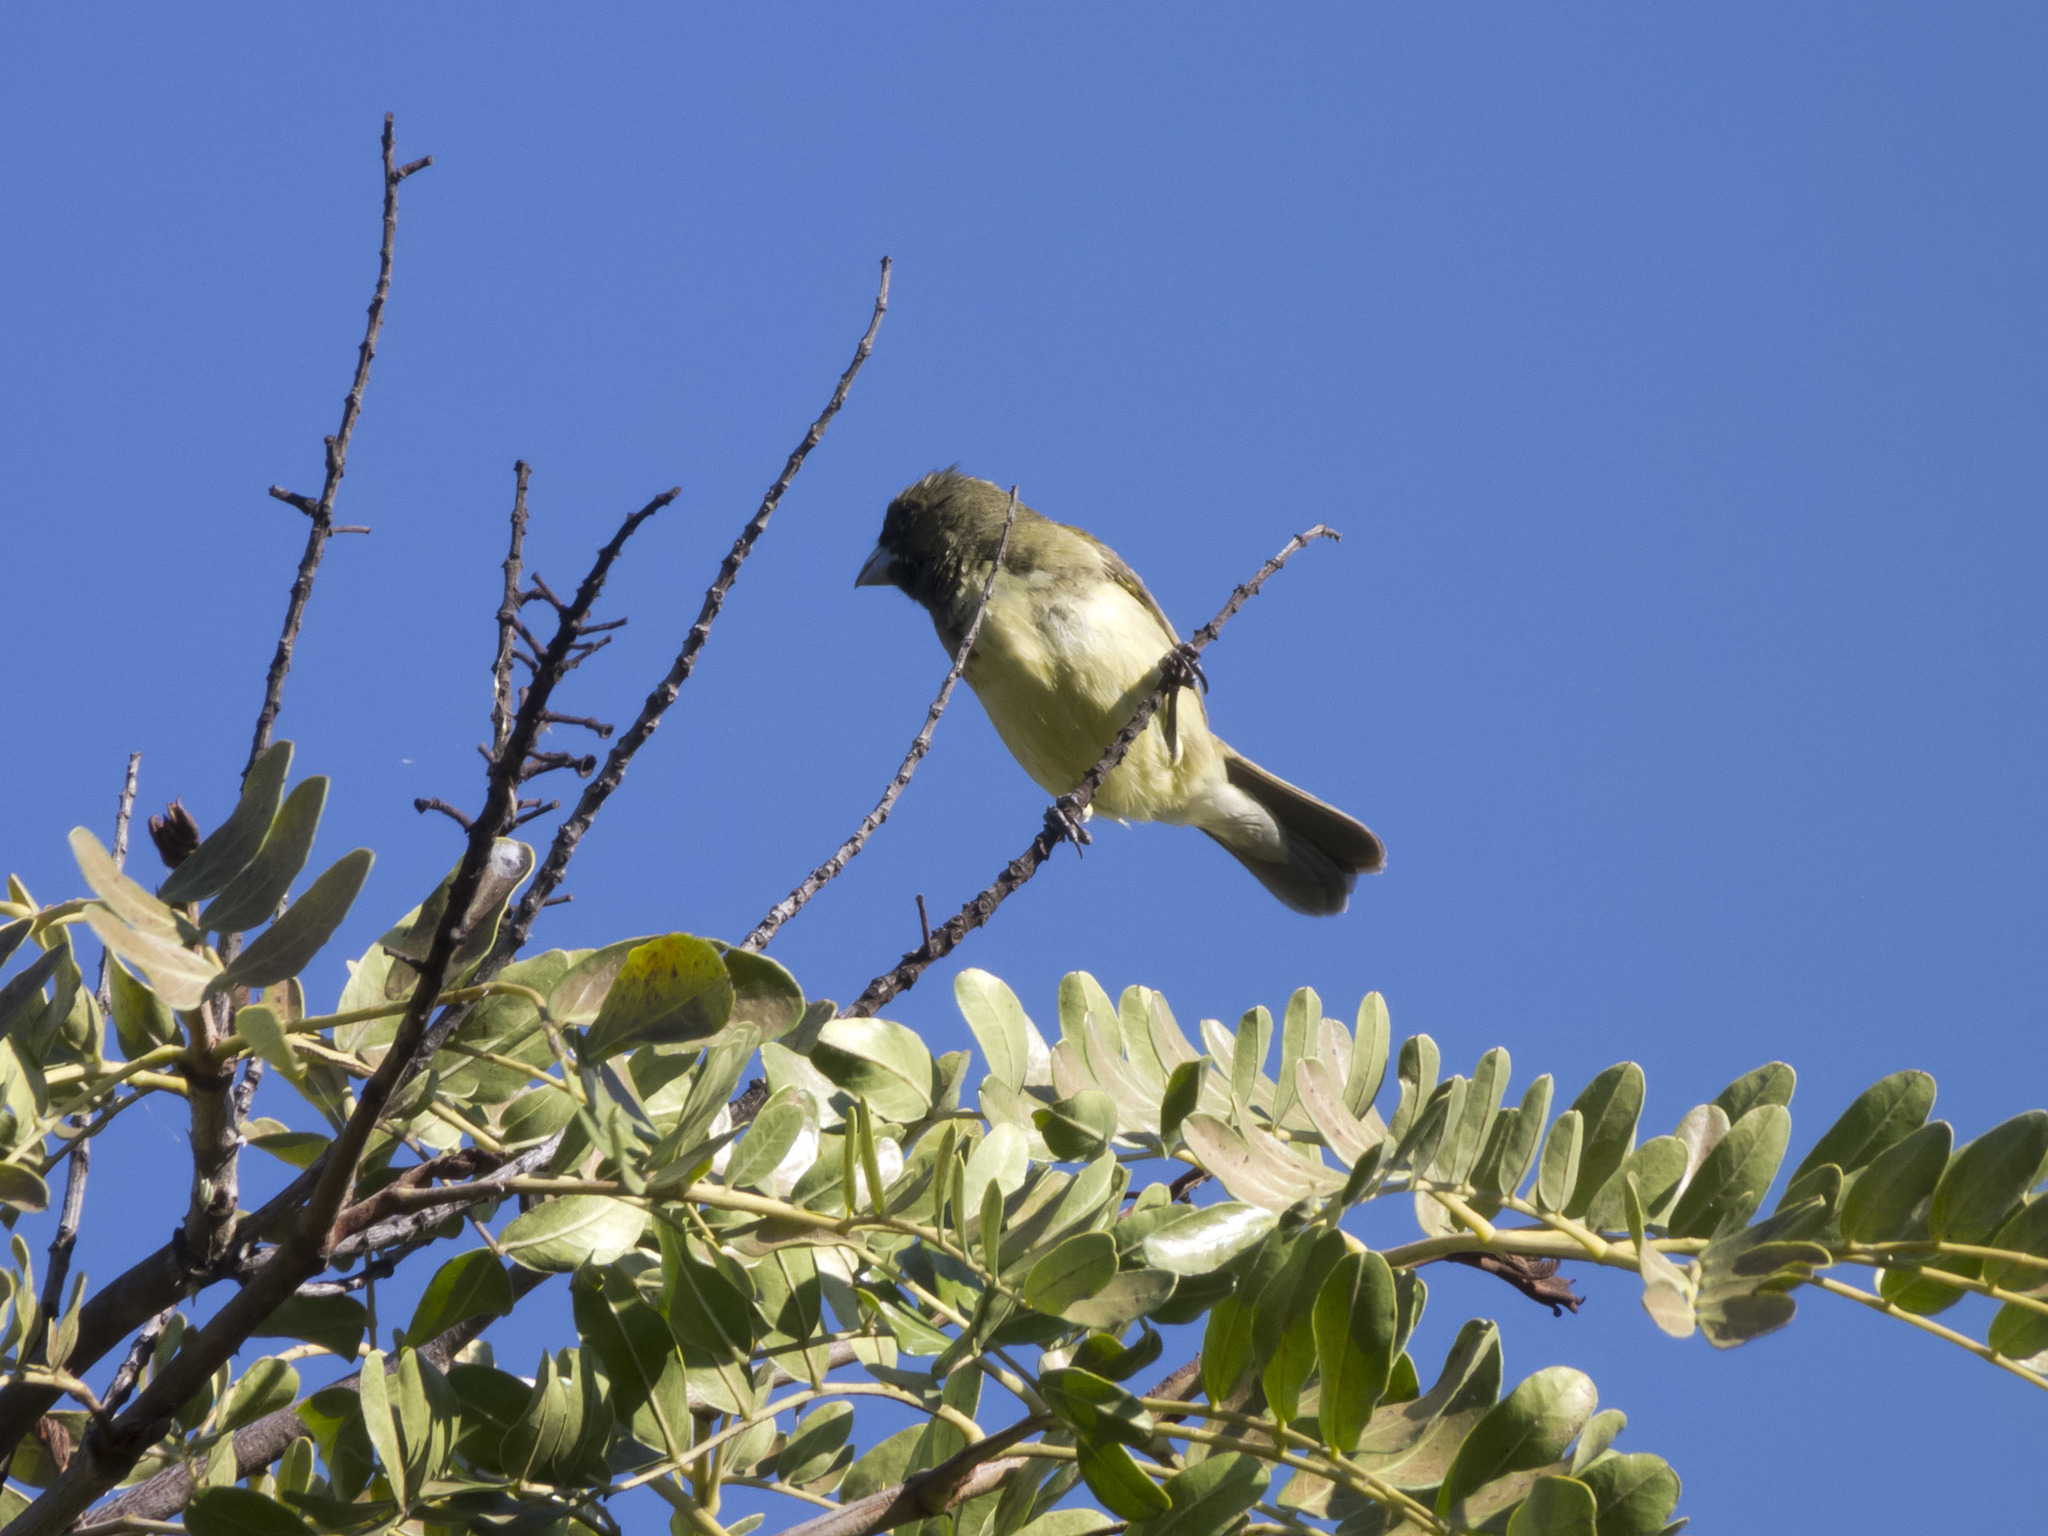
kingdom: Animalia
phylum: Chordata
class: Aves
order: Passeriformes
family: Thraupidae
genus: Sporophila
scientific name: Sporophila nigricollis
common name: Yellow-bellied seedeater
